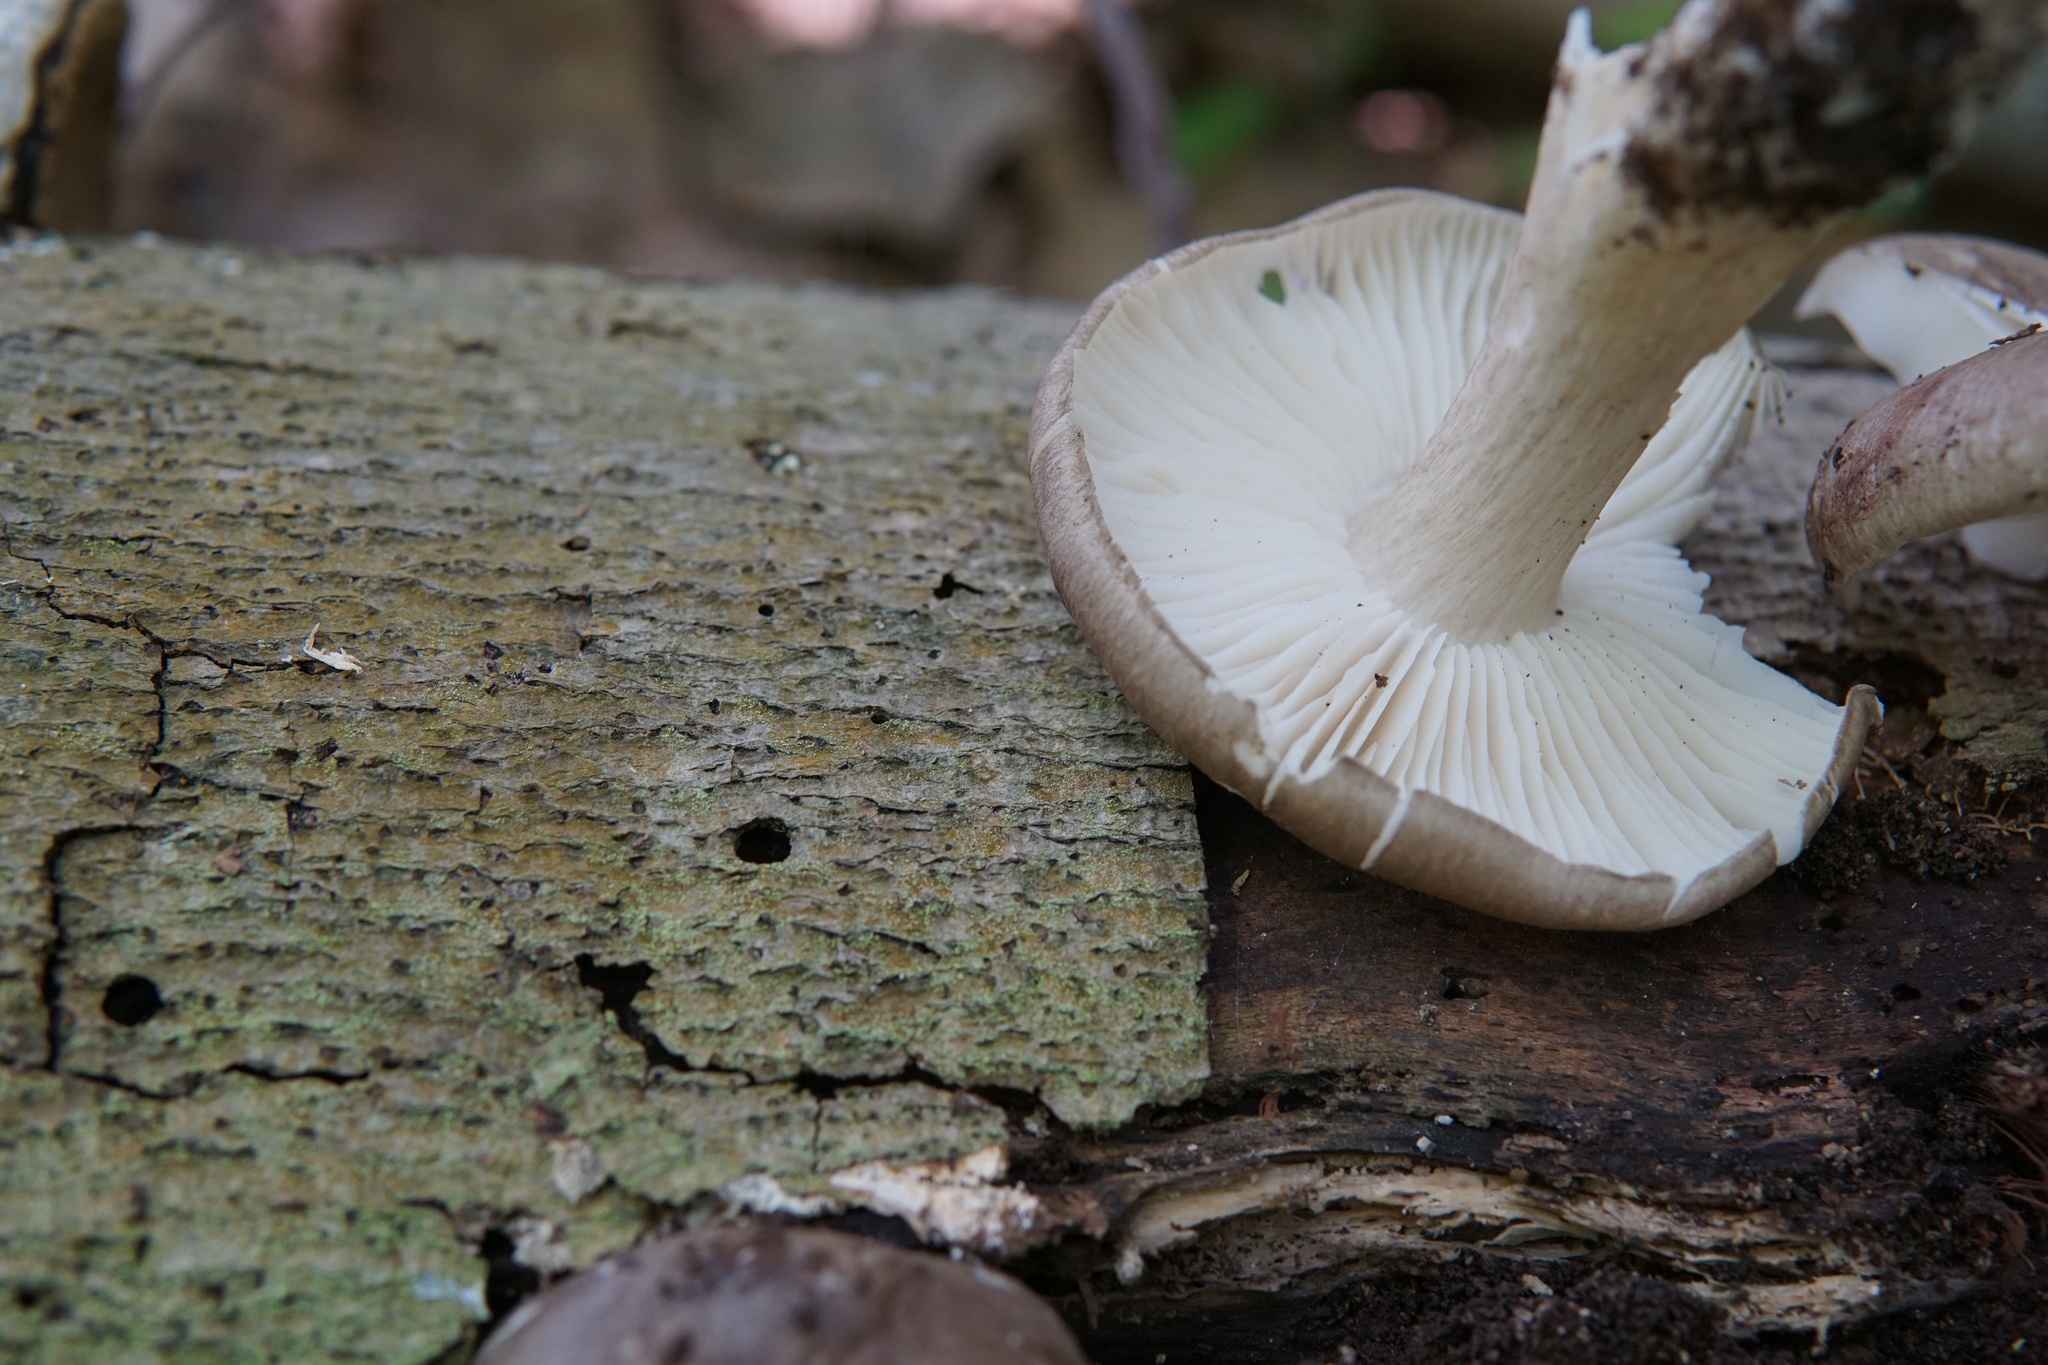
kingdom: Fungi
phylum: Basidiomycota
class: Agaricomycetes
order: Agaricales
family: Tricholomataceae
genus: Megacollybia
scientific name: Megacollybia rodmanii
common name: Eastern american platterful mushroom
